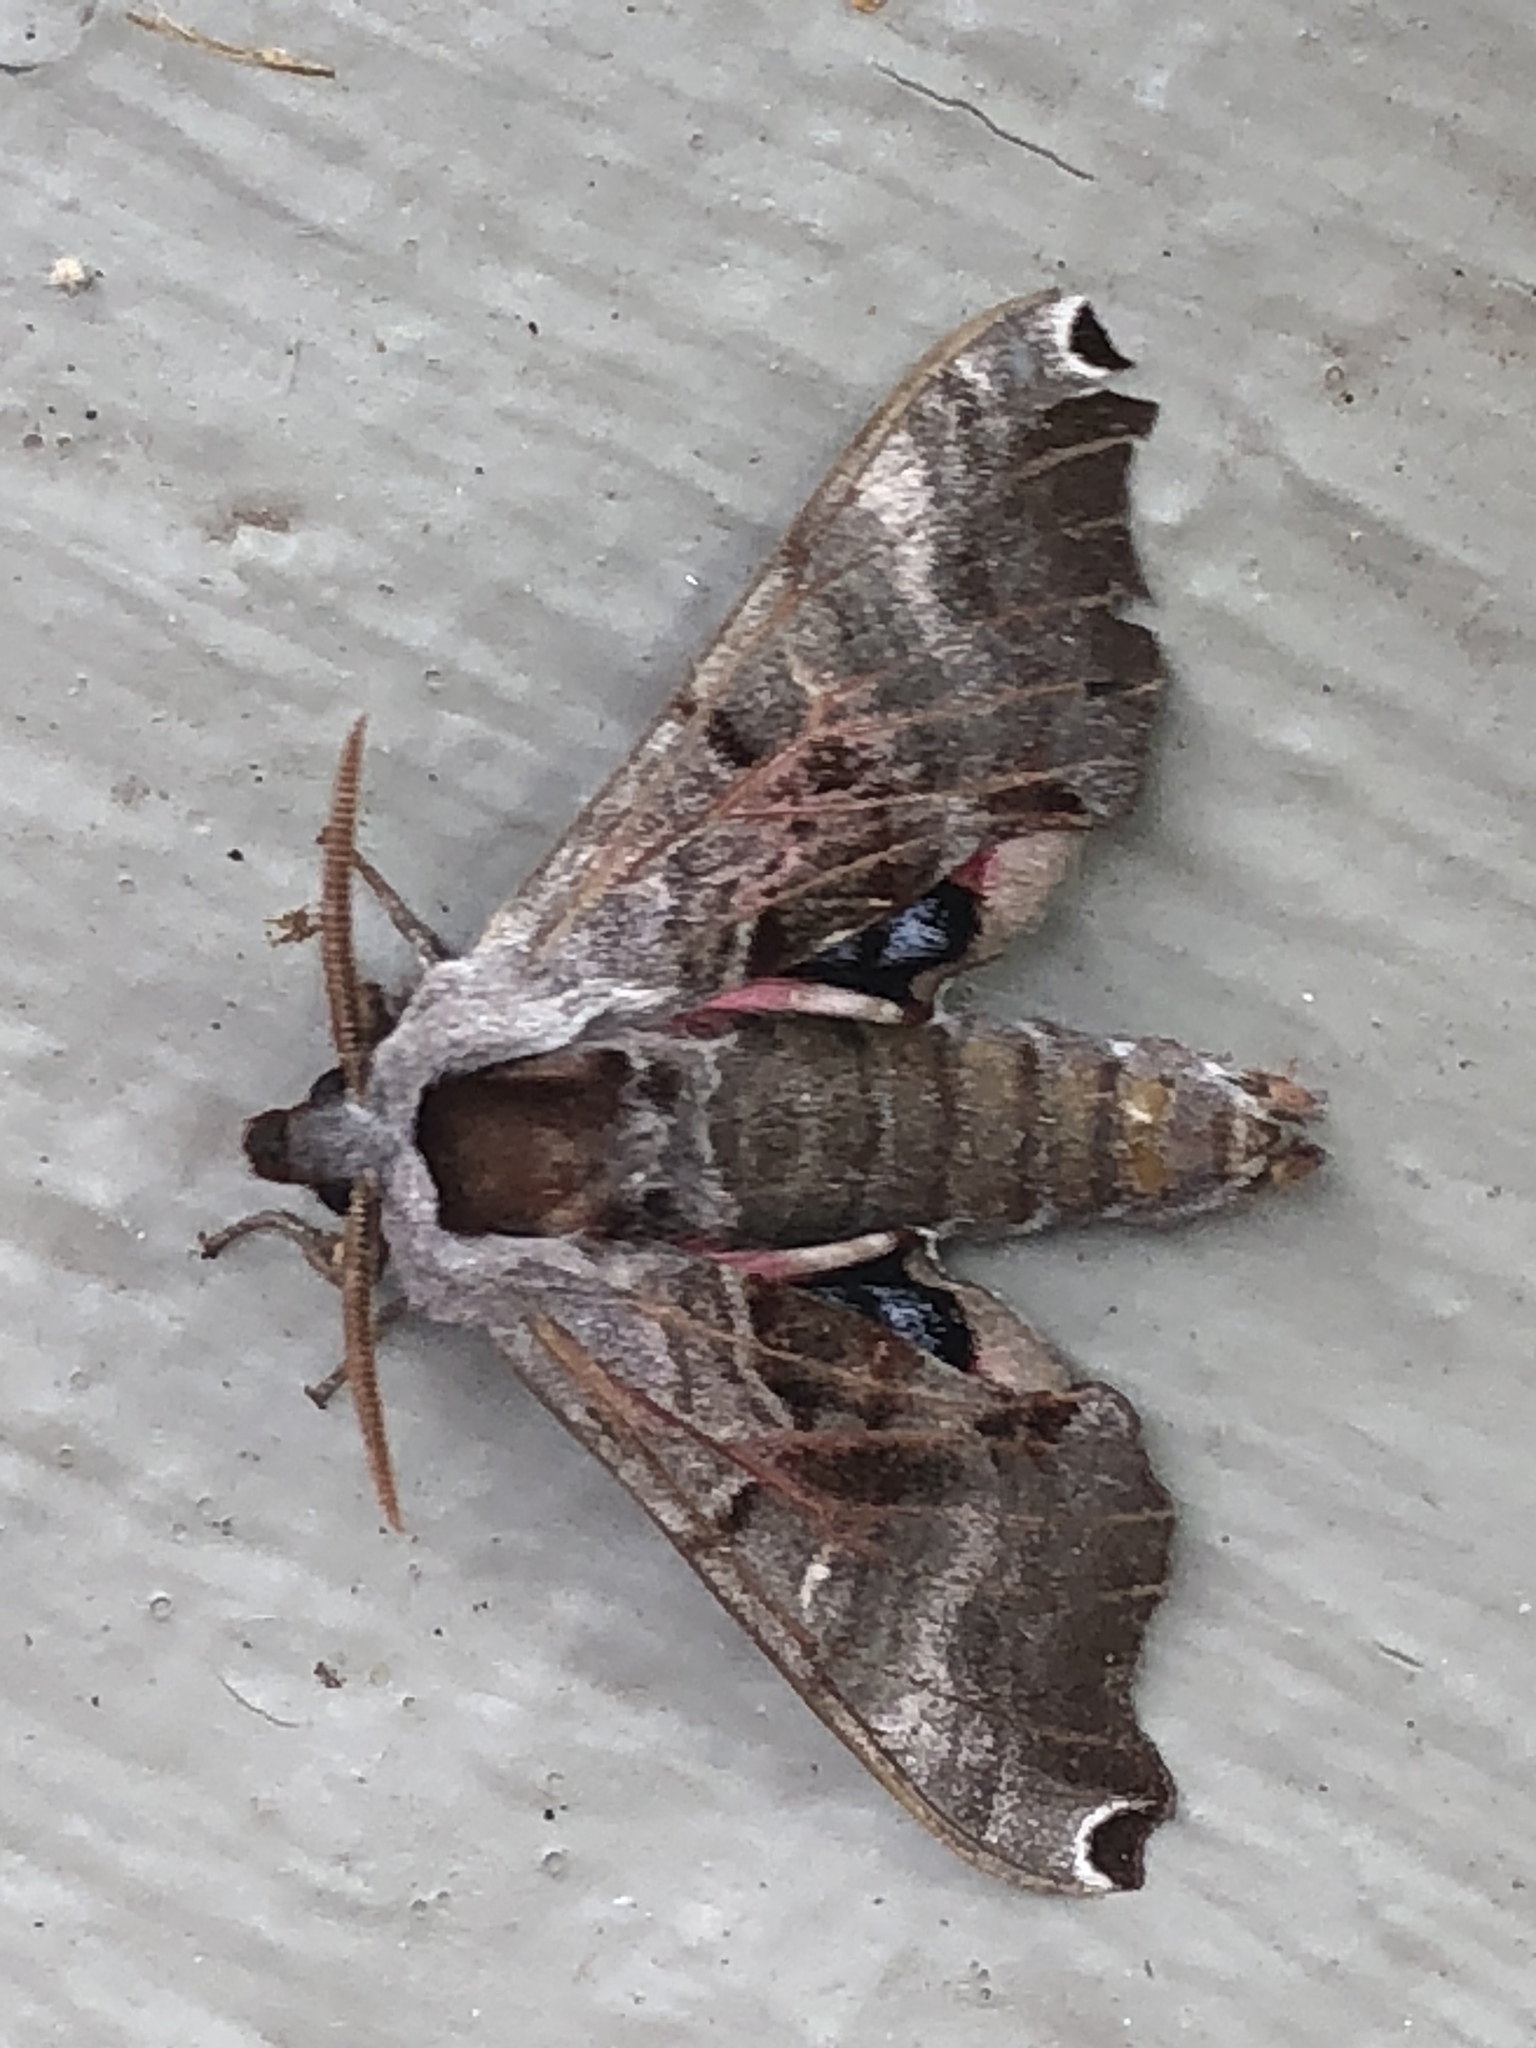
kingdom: Animalia
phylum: Arthropoda
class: Insecta
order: Lepidoptera
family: Sphingidae
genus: Smerinthus
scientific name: Smerinthus jamaicensis
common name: Twin spotted sphinx
